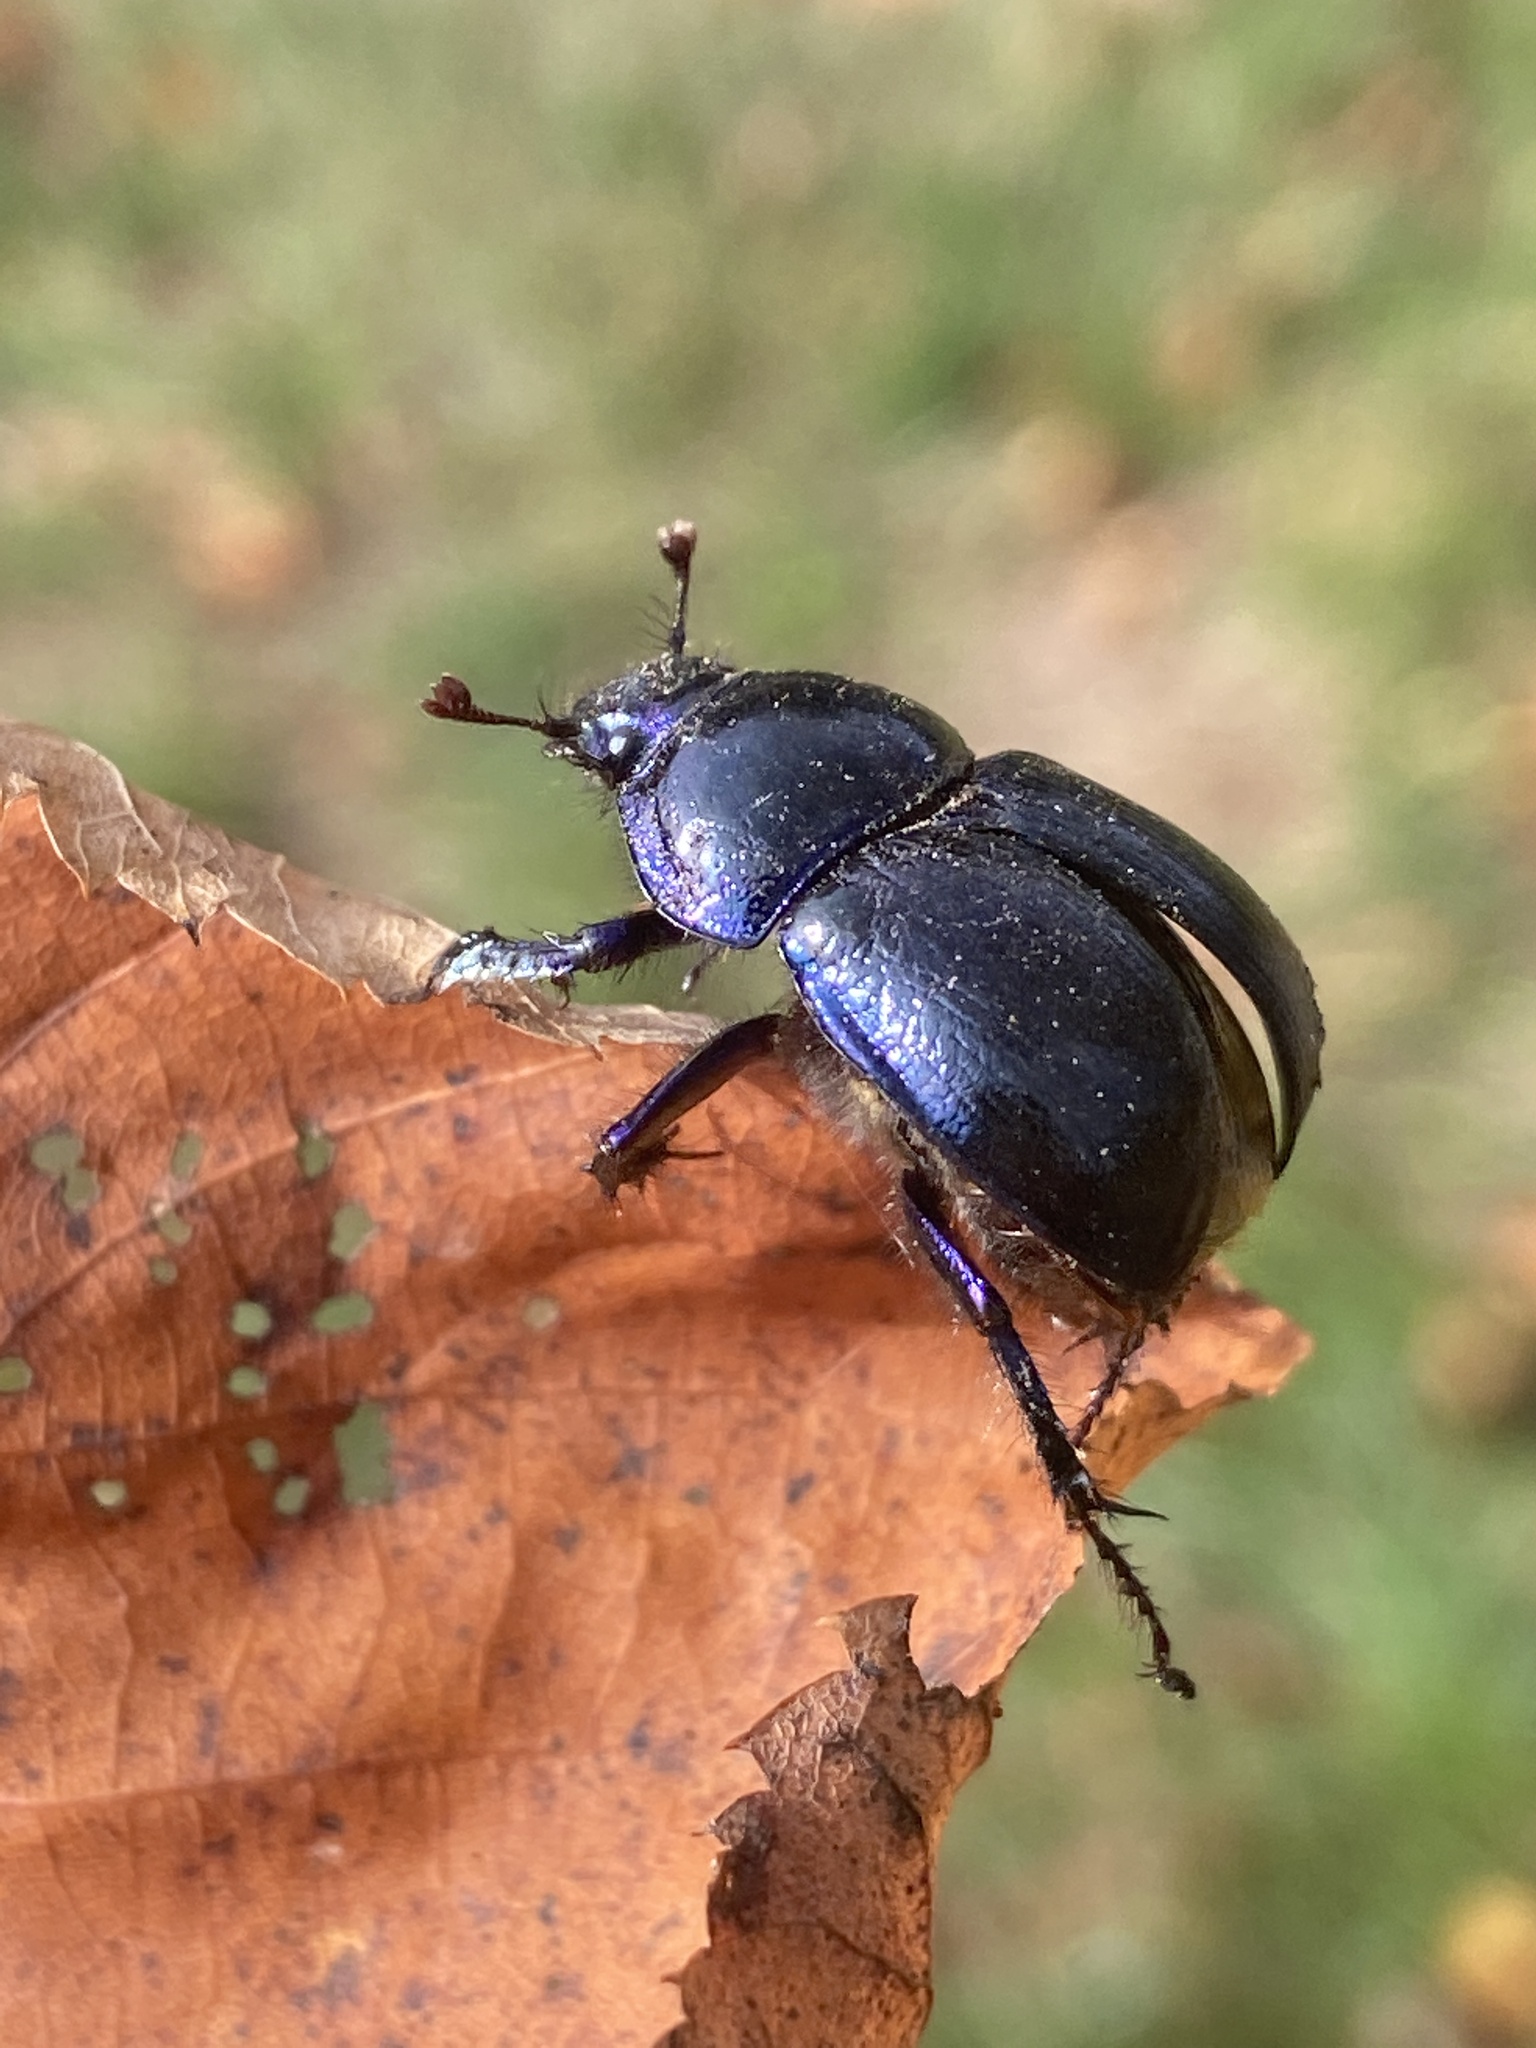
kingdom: Animalia
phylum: Arthropoda
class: Insecta
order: Coleoptera
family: Geotrupidae
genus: Anoplotrupes
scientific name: Anoplotrupes stercorosus
